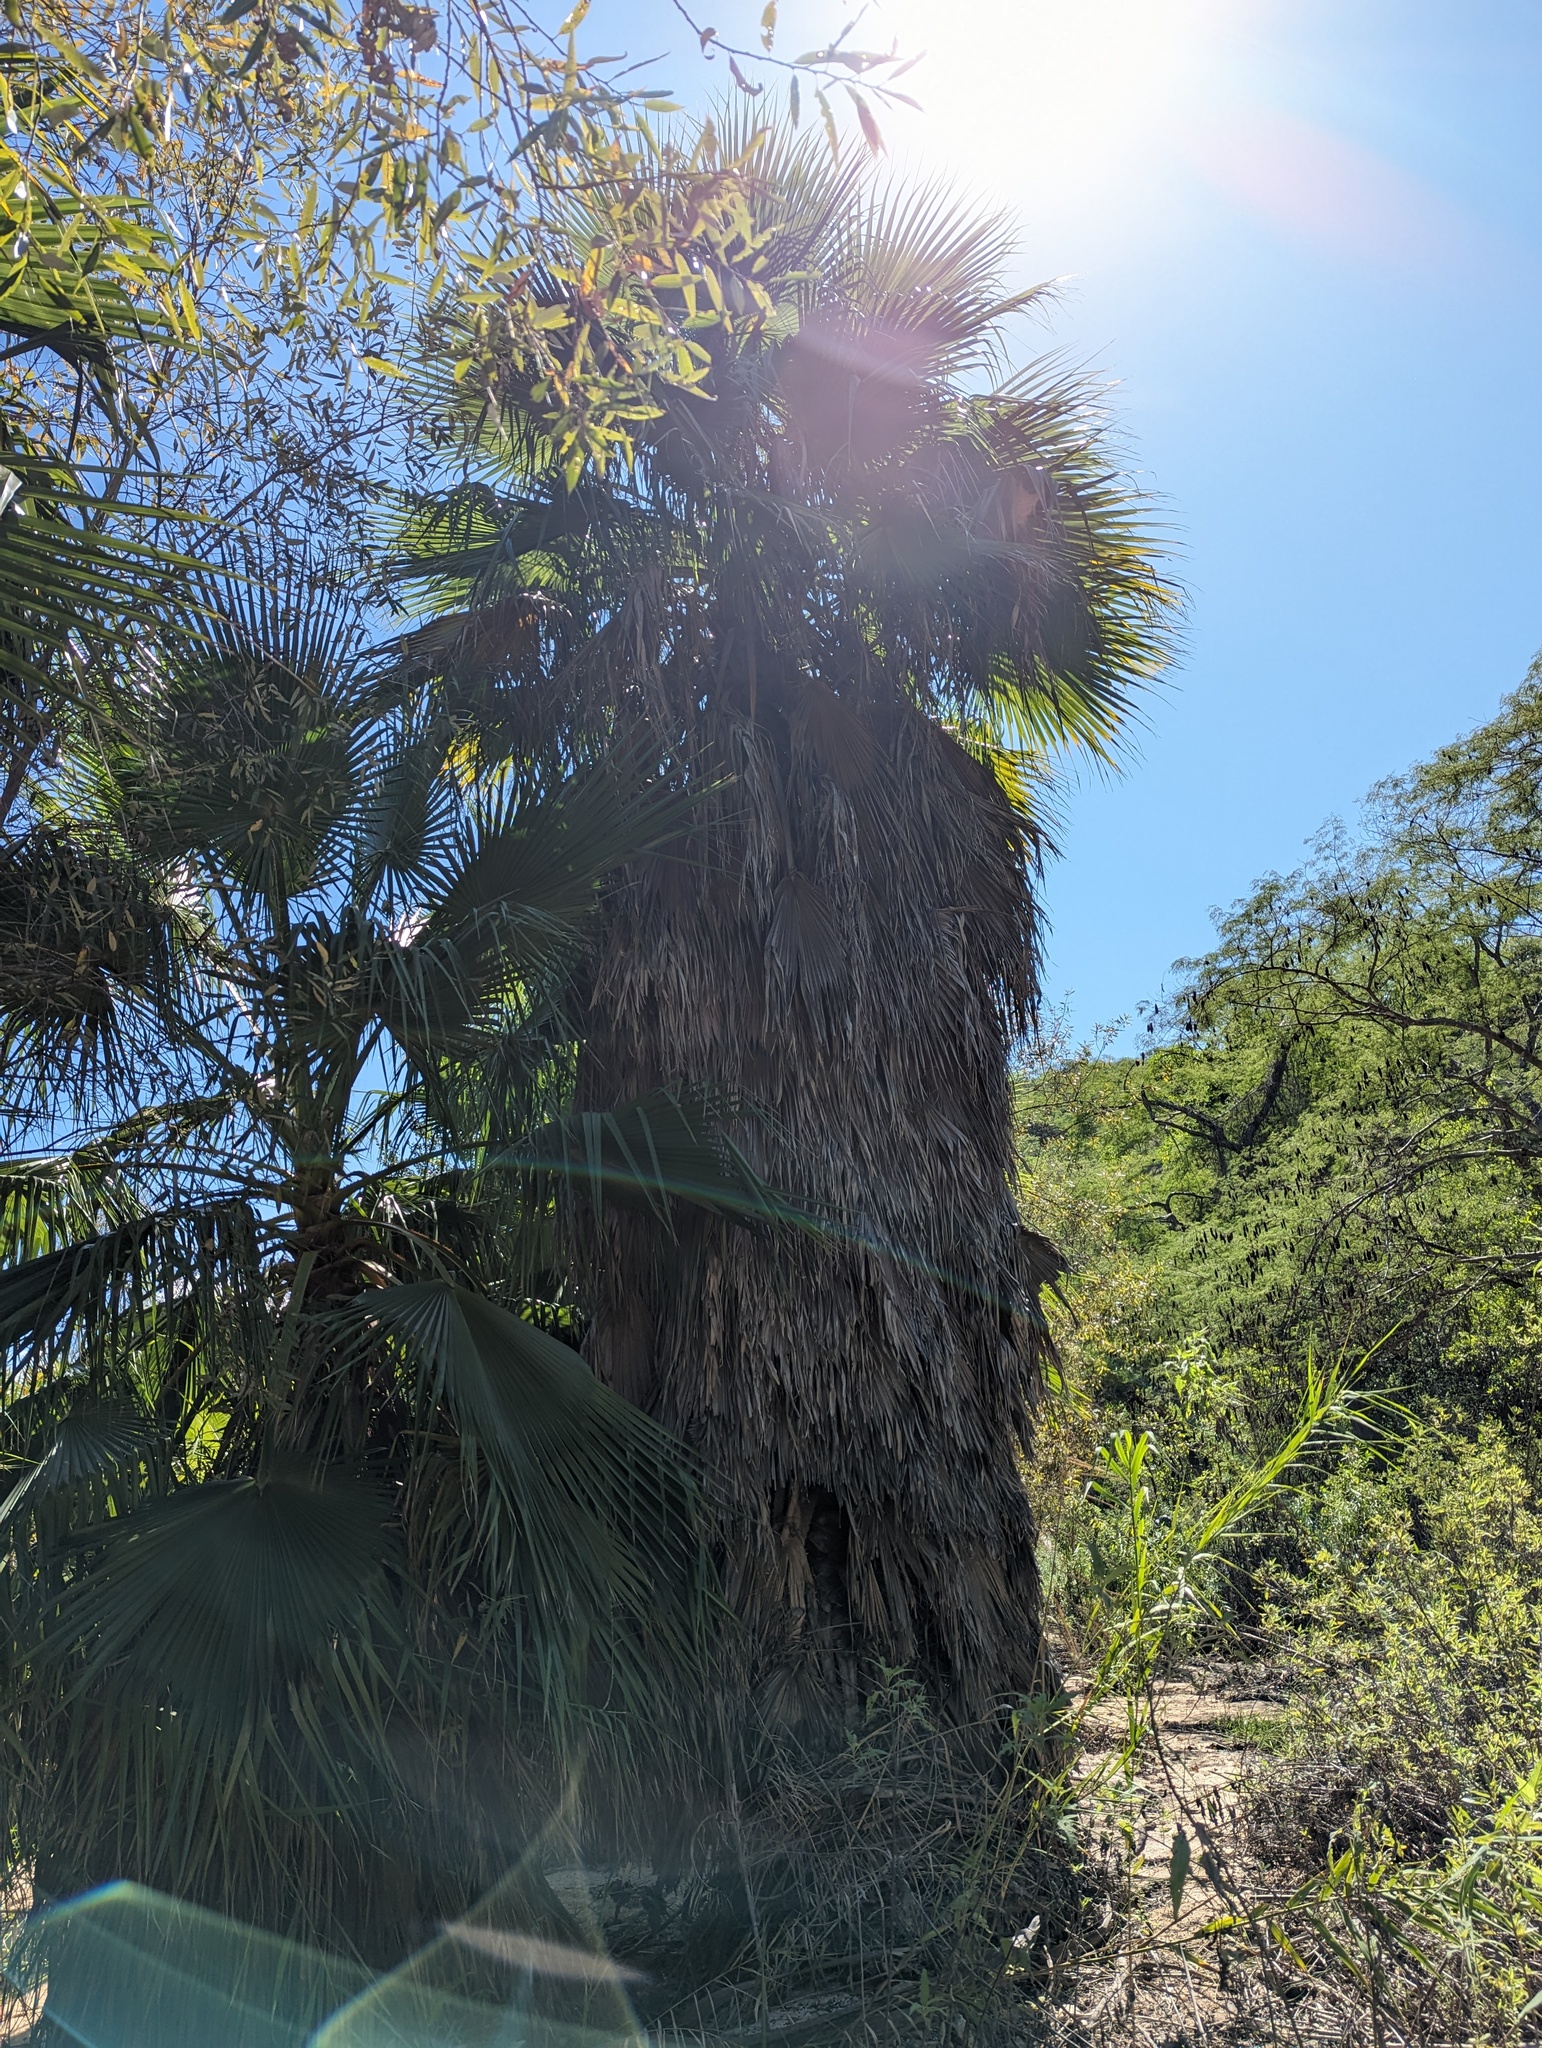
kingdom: Plantae
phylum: Tracheophyta
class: Liliopsida
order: Arecales
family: Arecaceae
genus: Washingtonia
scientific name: Washingtonia robusta
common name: Mexican fan palm
